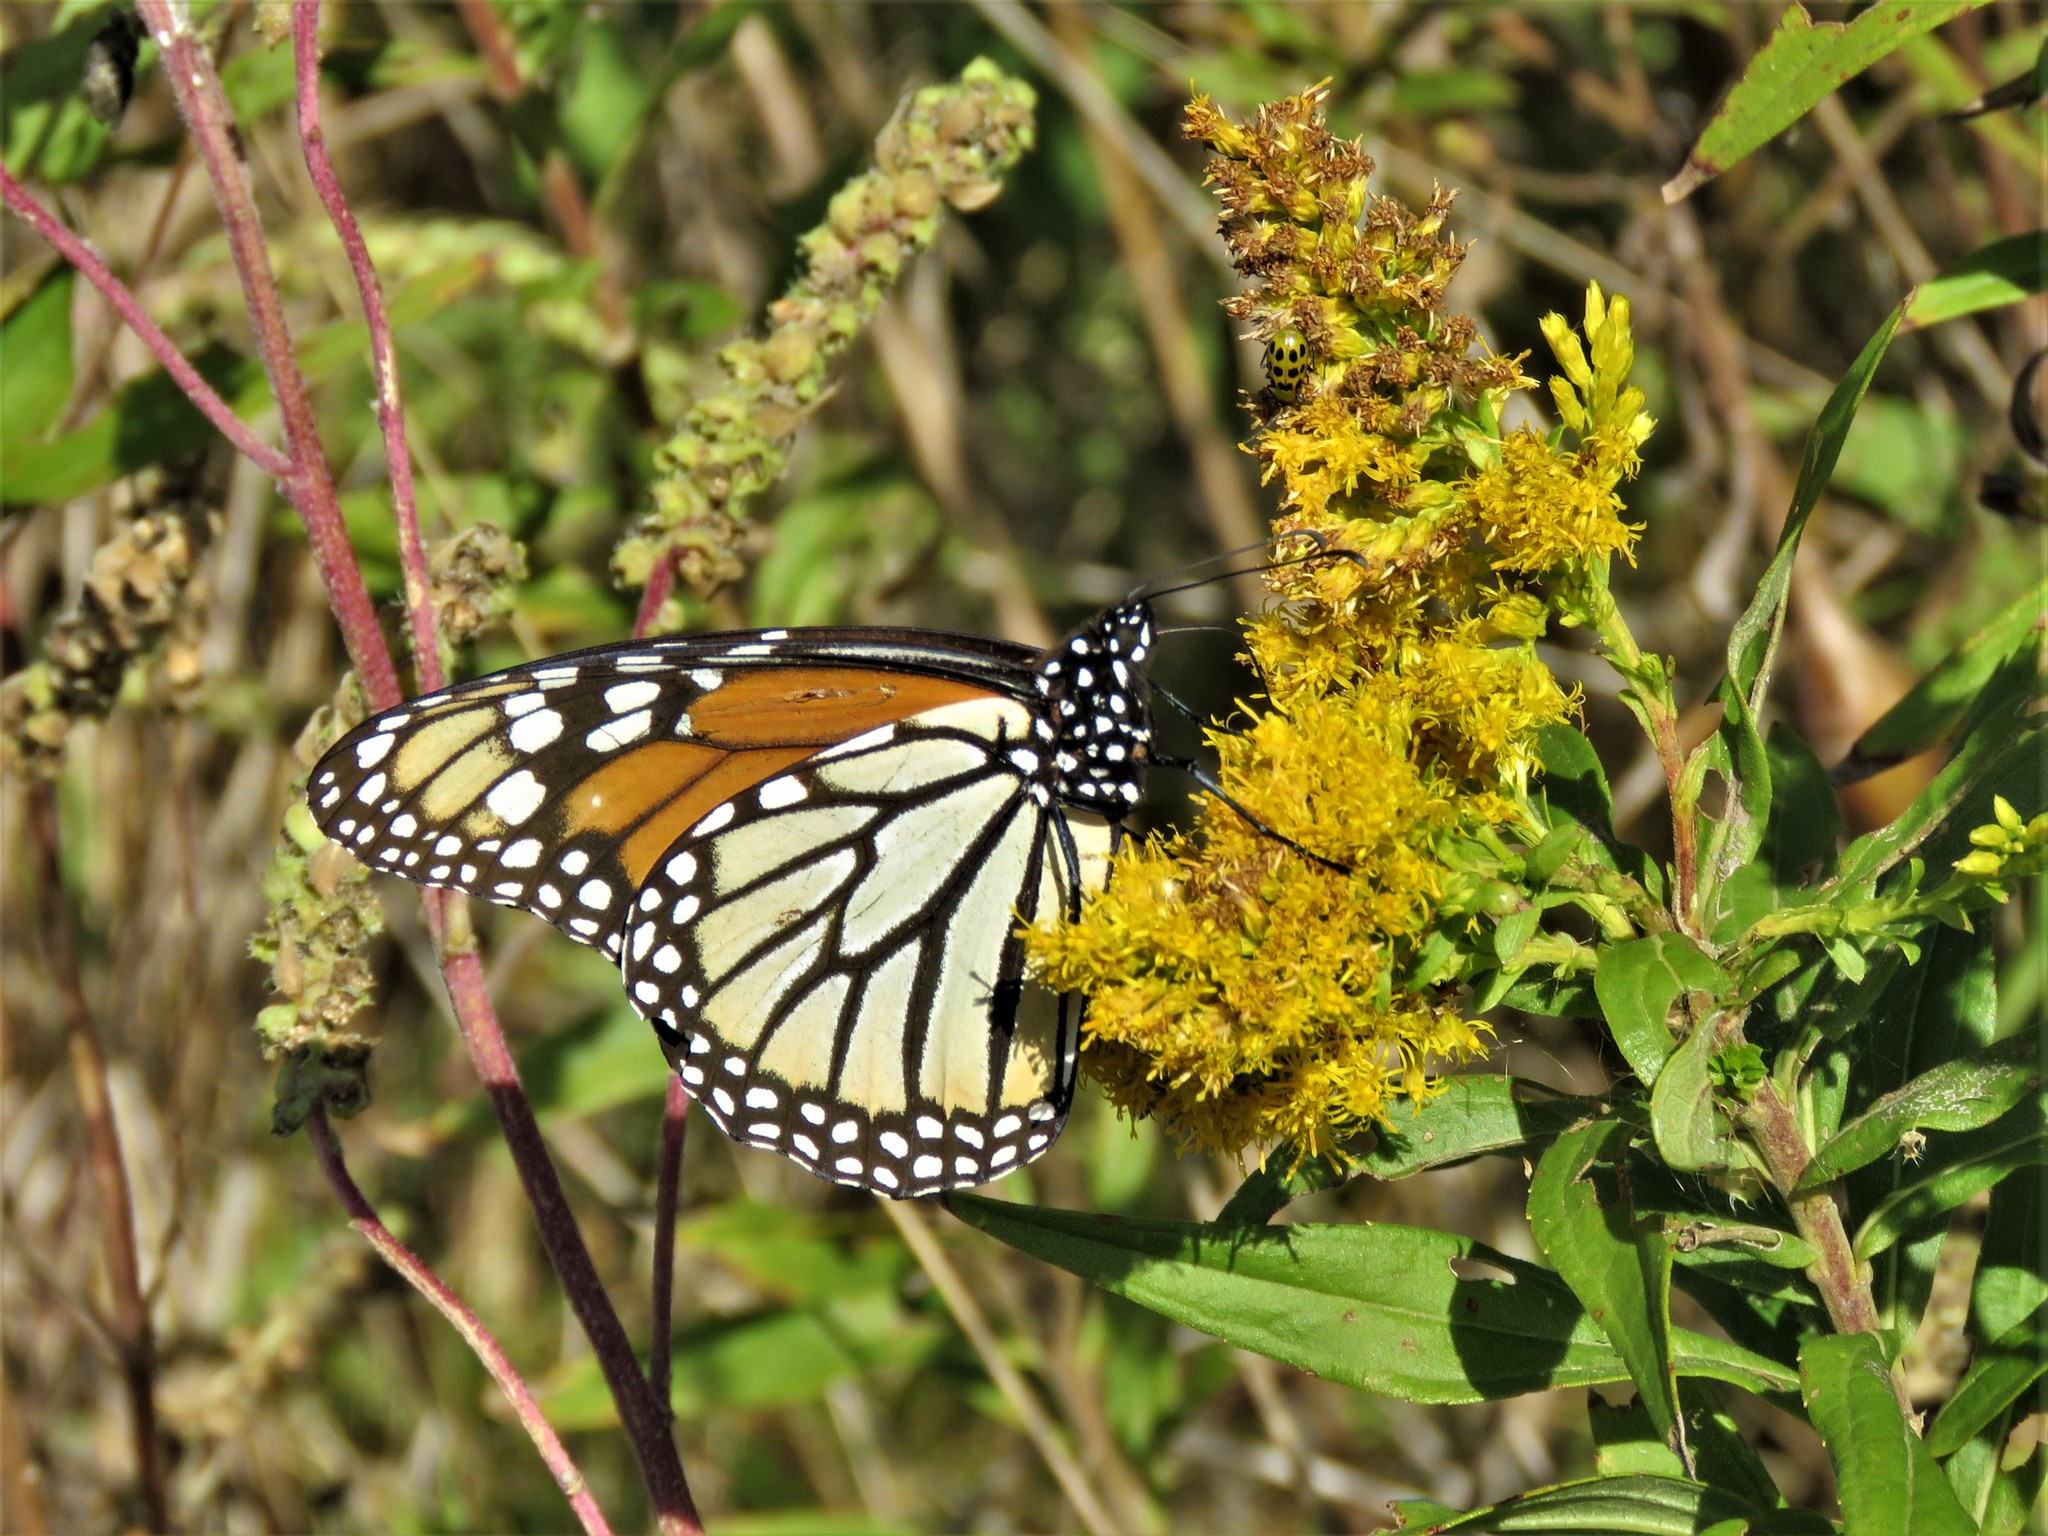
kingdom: Animalia
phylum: Arthropoda
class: Insecta
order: Lepidoptera
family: Nymphalidae
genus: Danaus
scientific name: Danaus plexippus
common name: Monarch
